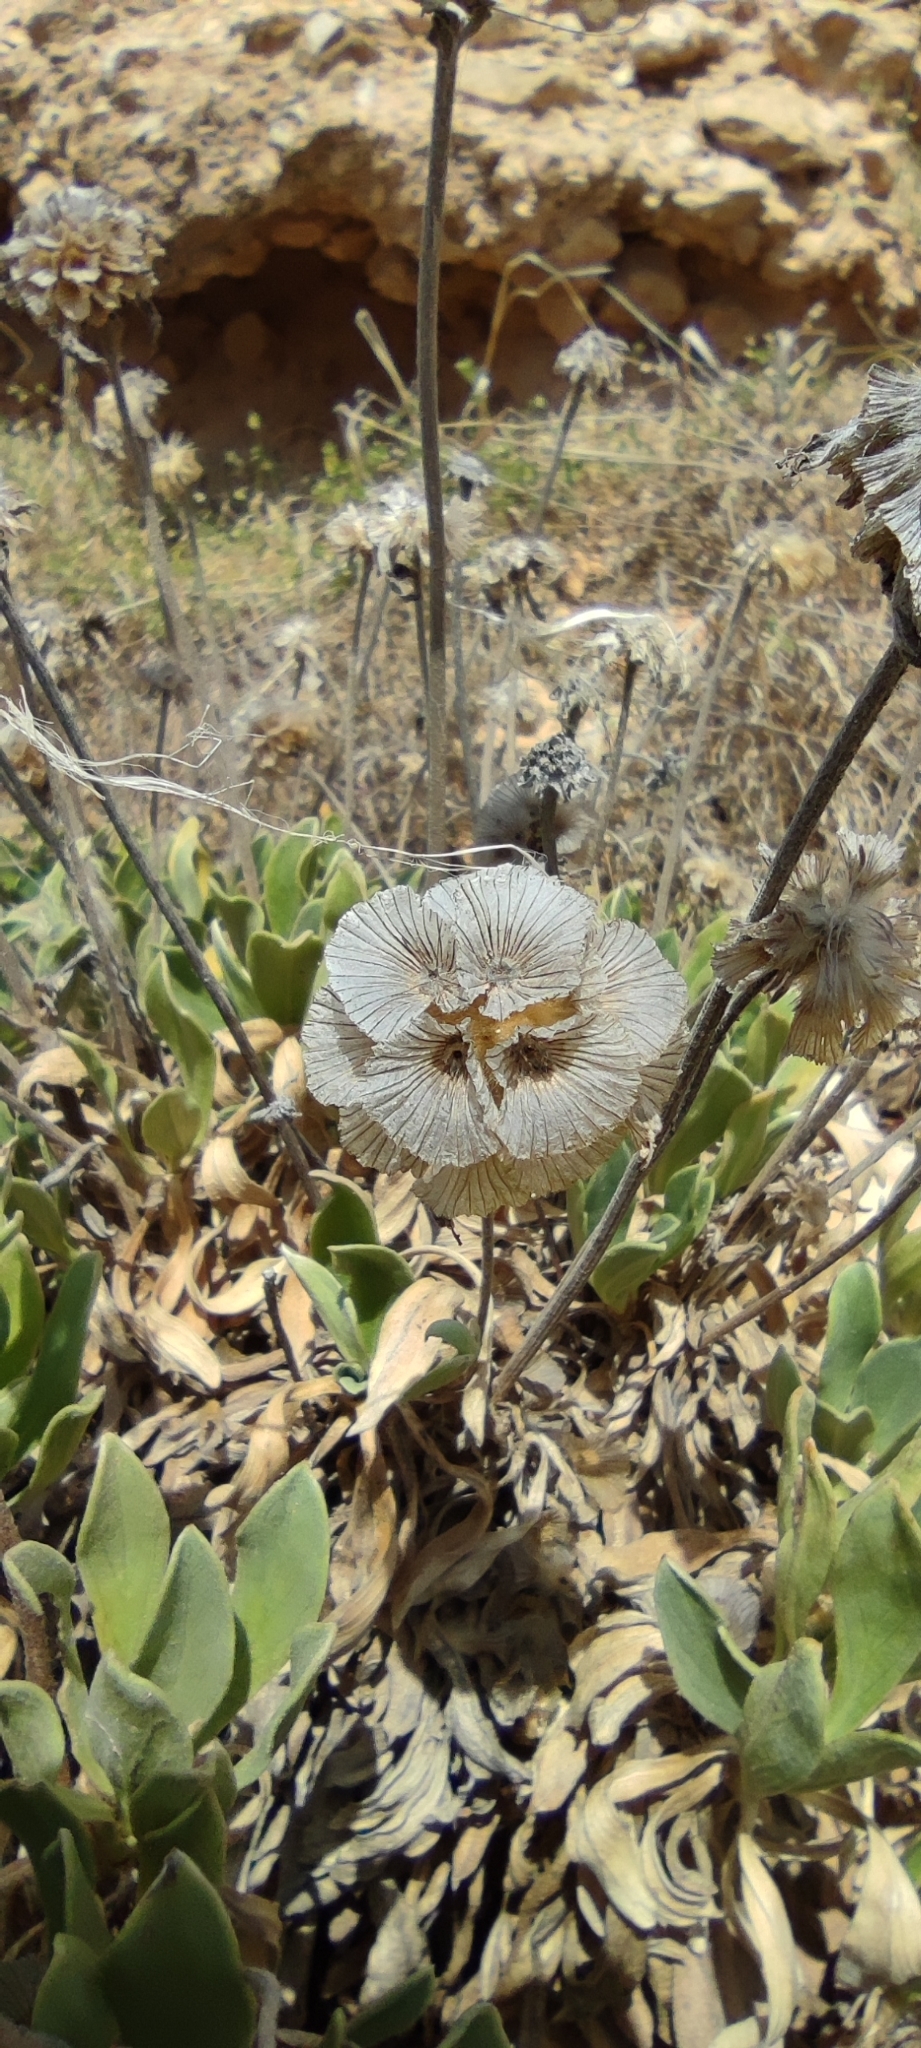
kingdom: Plantae
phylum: Tracheophyta
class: Magnoliopsida
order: Dipsacales
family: Caprifoliaceae
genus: Lomelosia
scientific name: Lomelosia cretica
